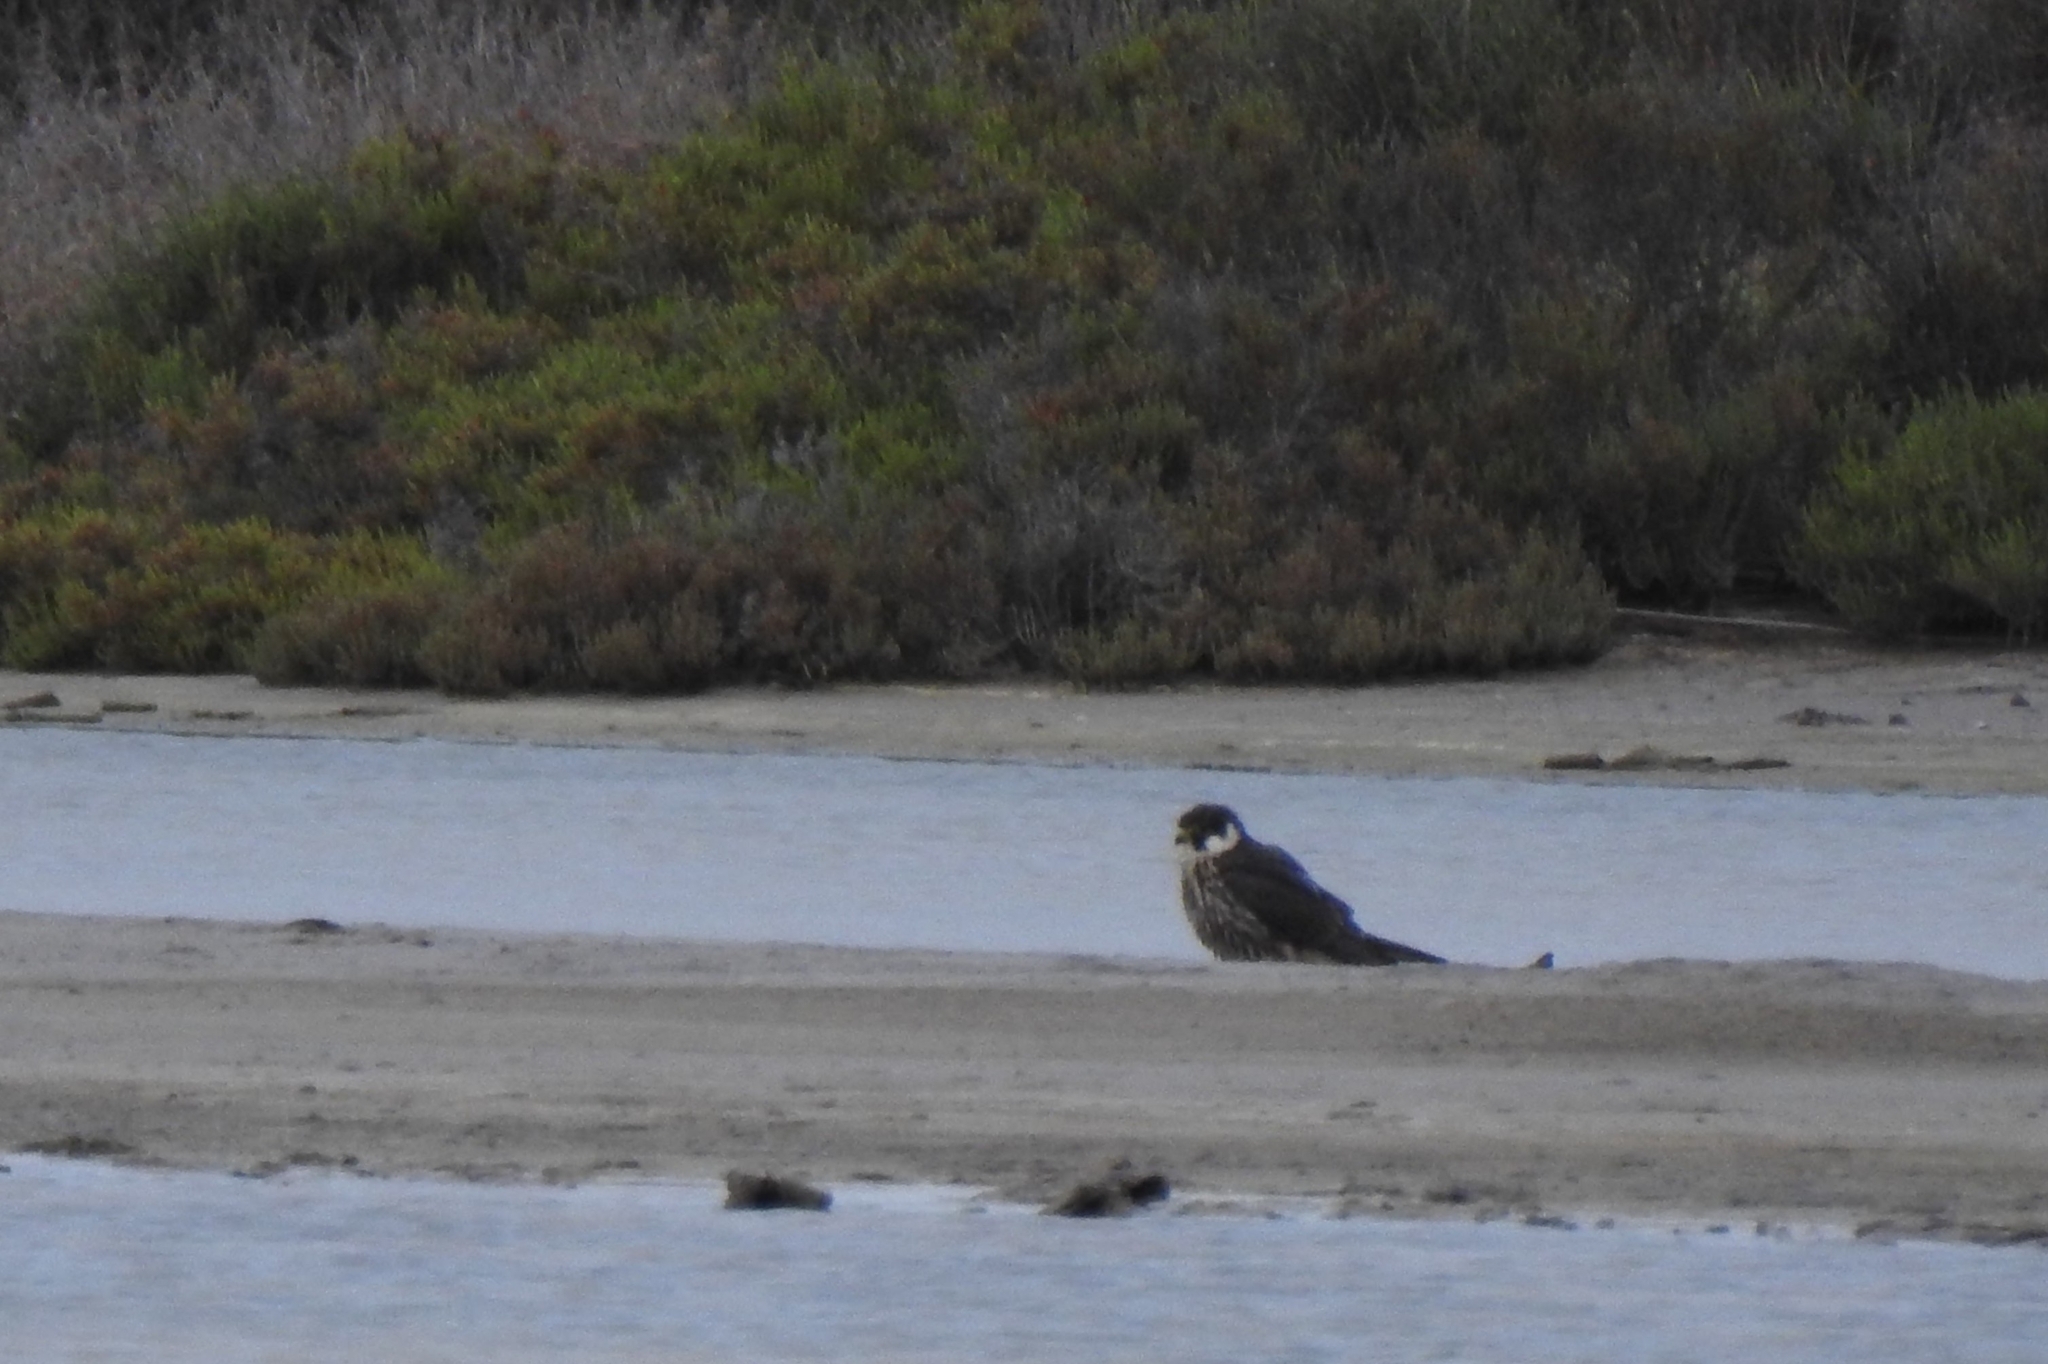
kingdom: Animalia
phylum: Chordata
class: Aves
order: Falconiformes
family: Falconidae
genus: Falco
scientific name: Falco subbuteo
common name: Eurasian hobby
